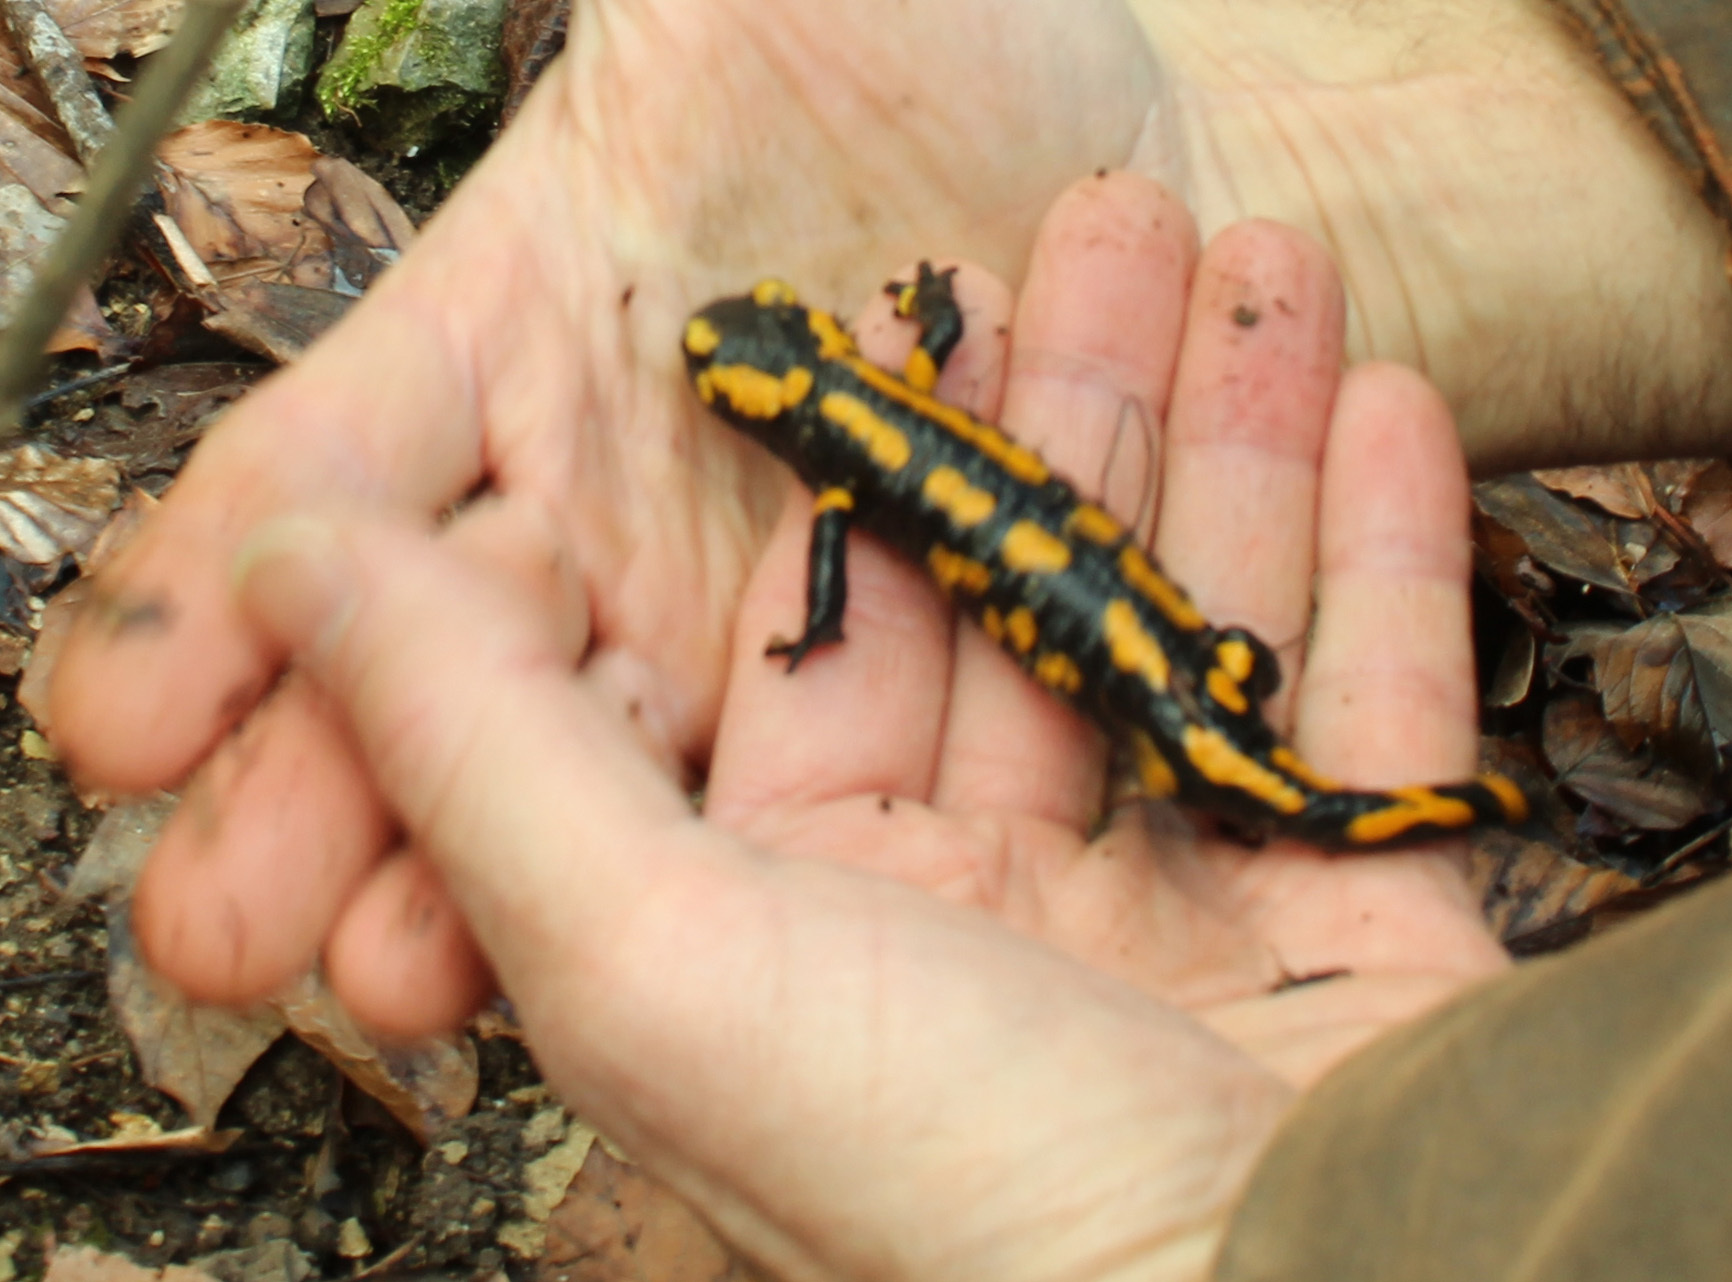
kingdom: Animalia
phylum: Chordata
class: Amphibia
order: Caudata
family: Salamandridae
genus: Salamandra
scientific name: Salamandra salamandra
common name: Fire salamander
